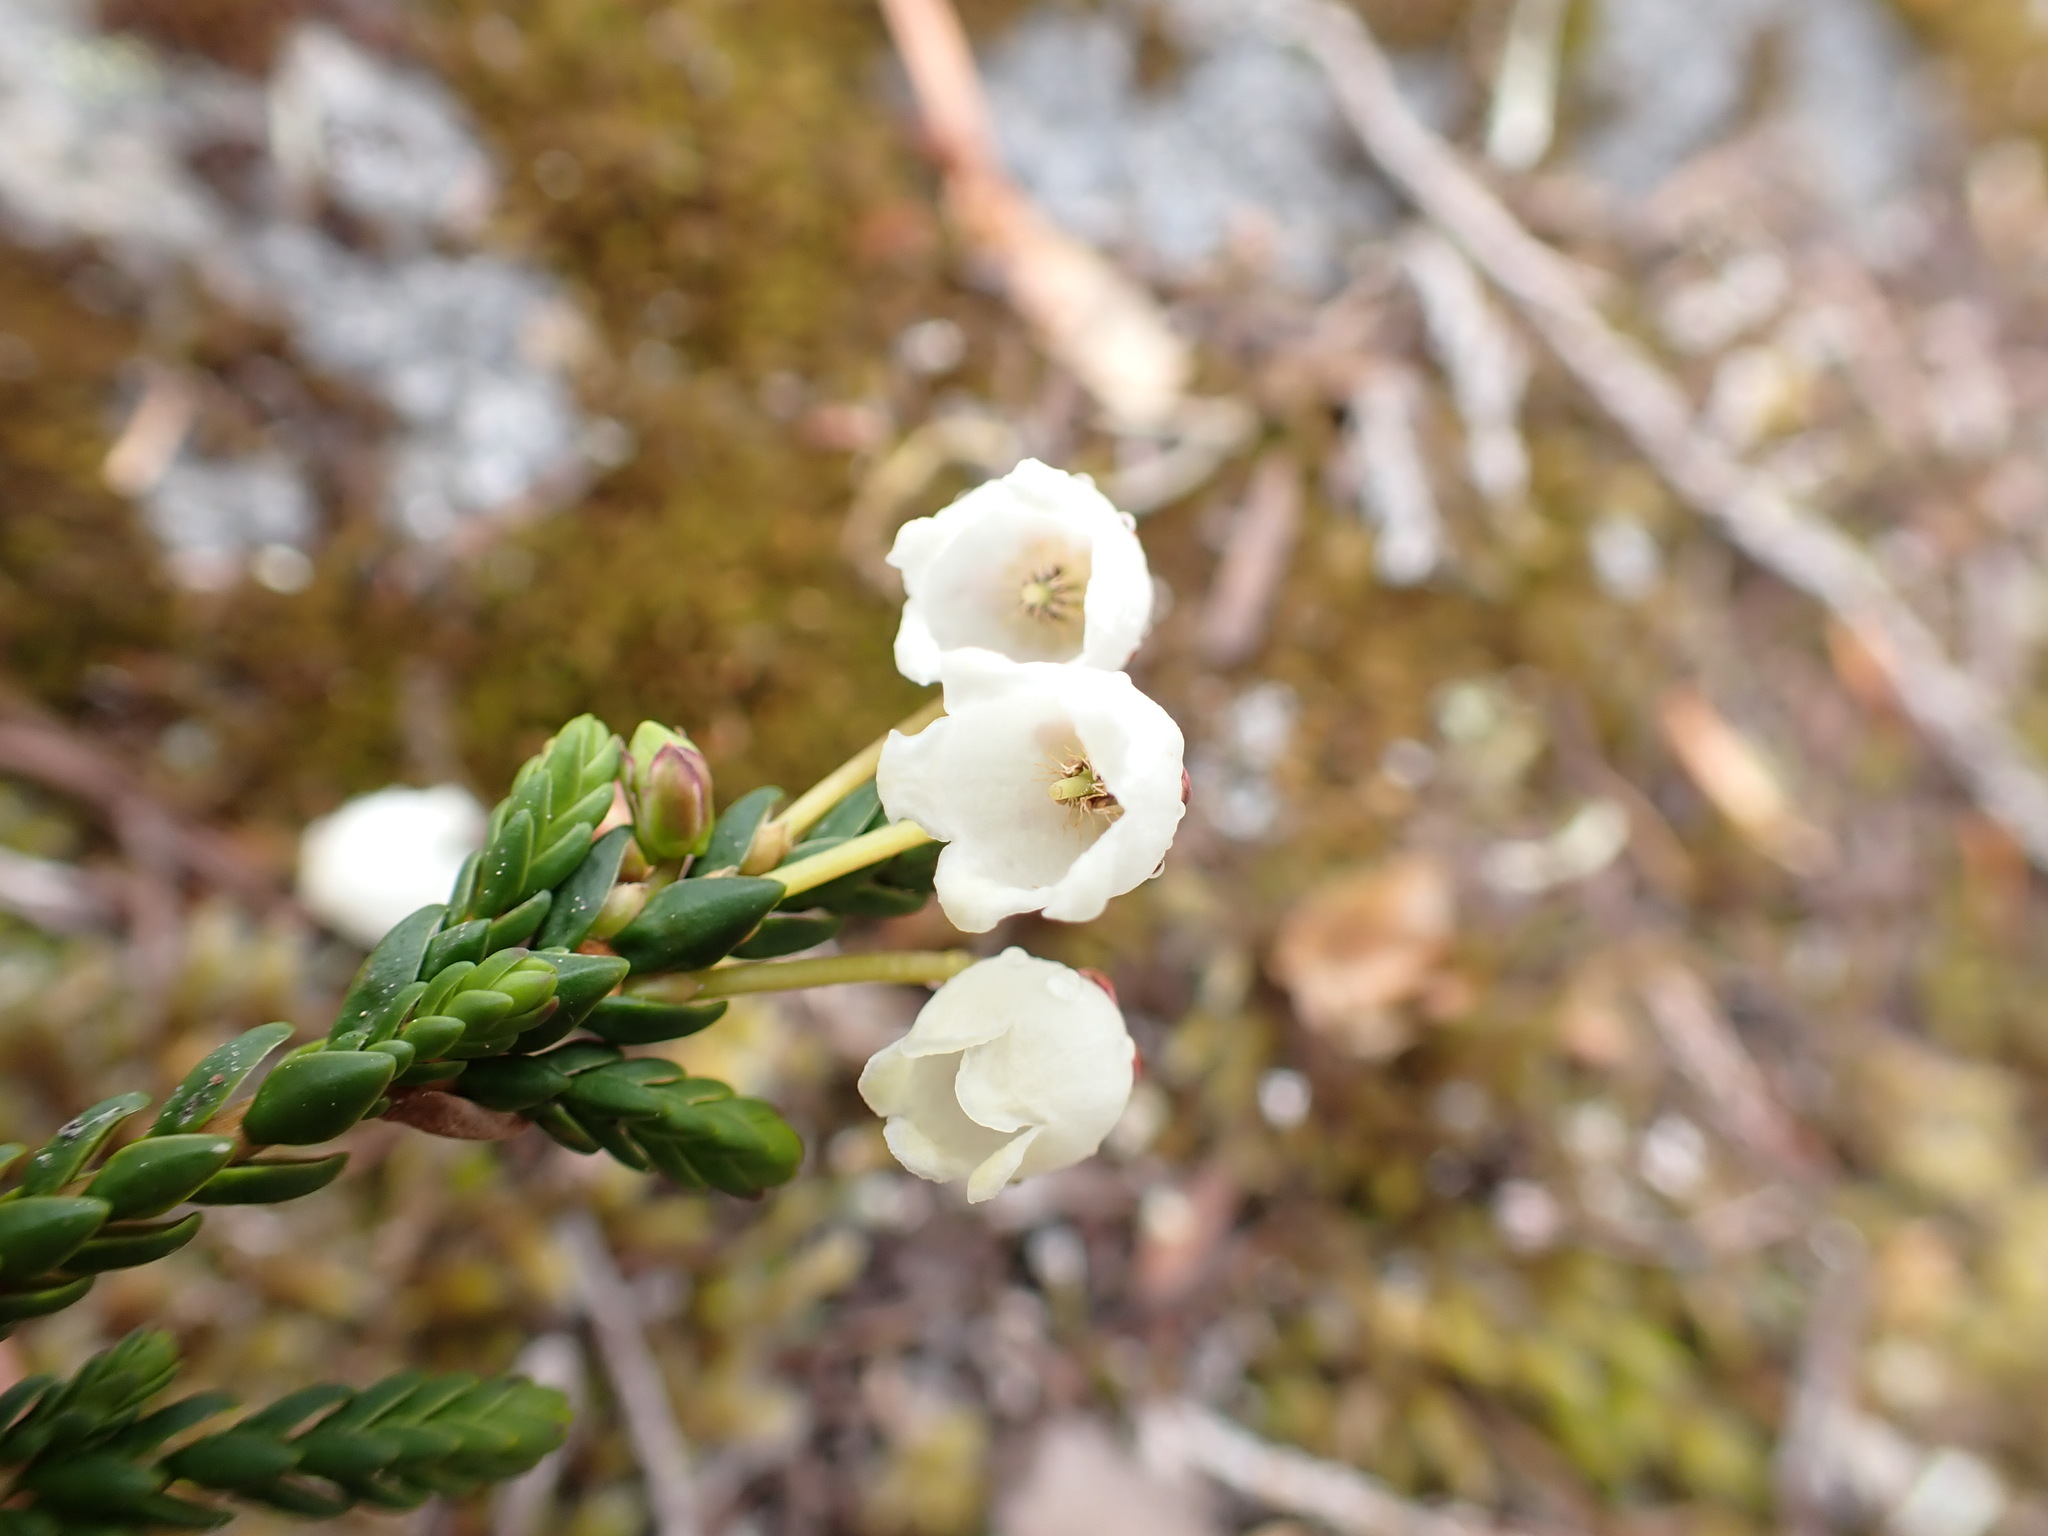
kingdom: Plantae
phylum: Tracheophyta
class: Magnoliopsida
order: Ericales
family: Ericaceae
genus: Cassiope
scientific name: Cassiope mertensiana
